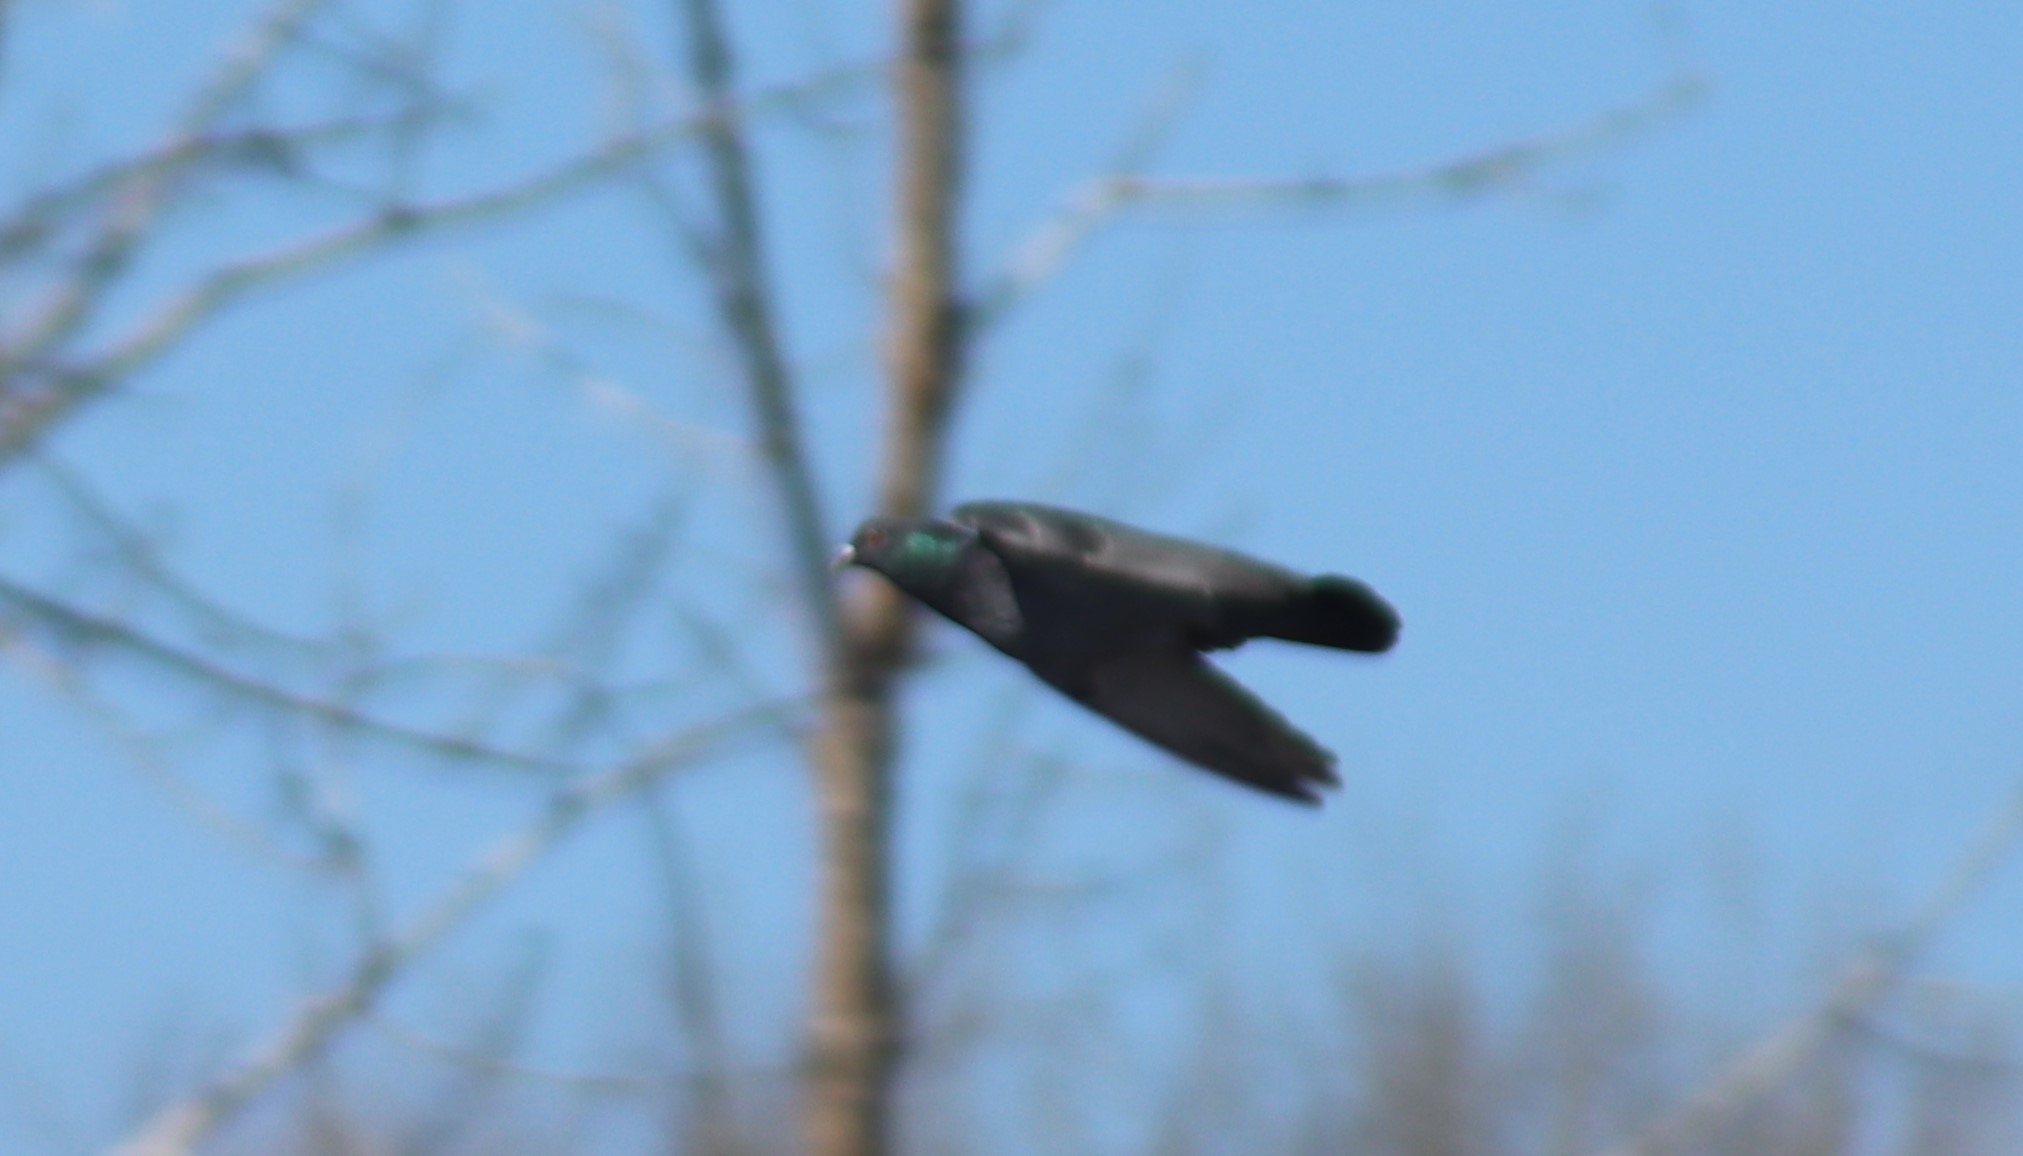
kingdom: Animalia
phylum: Chordata
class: Aves
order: Columbiformes
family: Columbidae
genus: Columba
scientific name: Columba livia
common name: Rock pigeon
